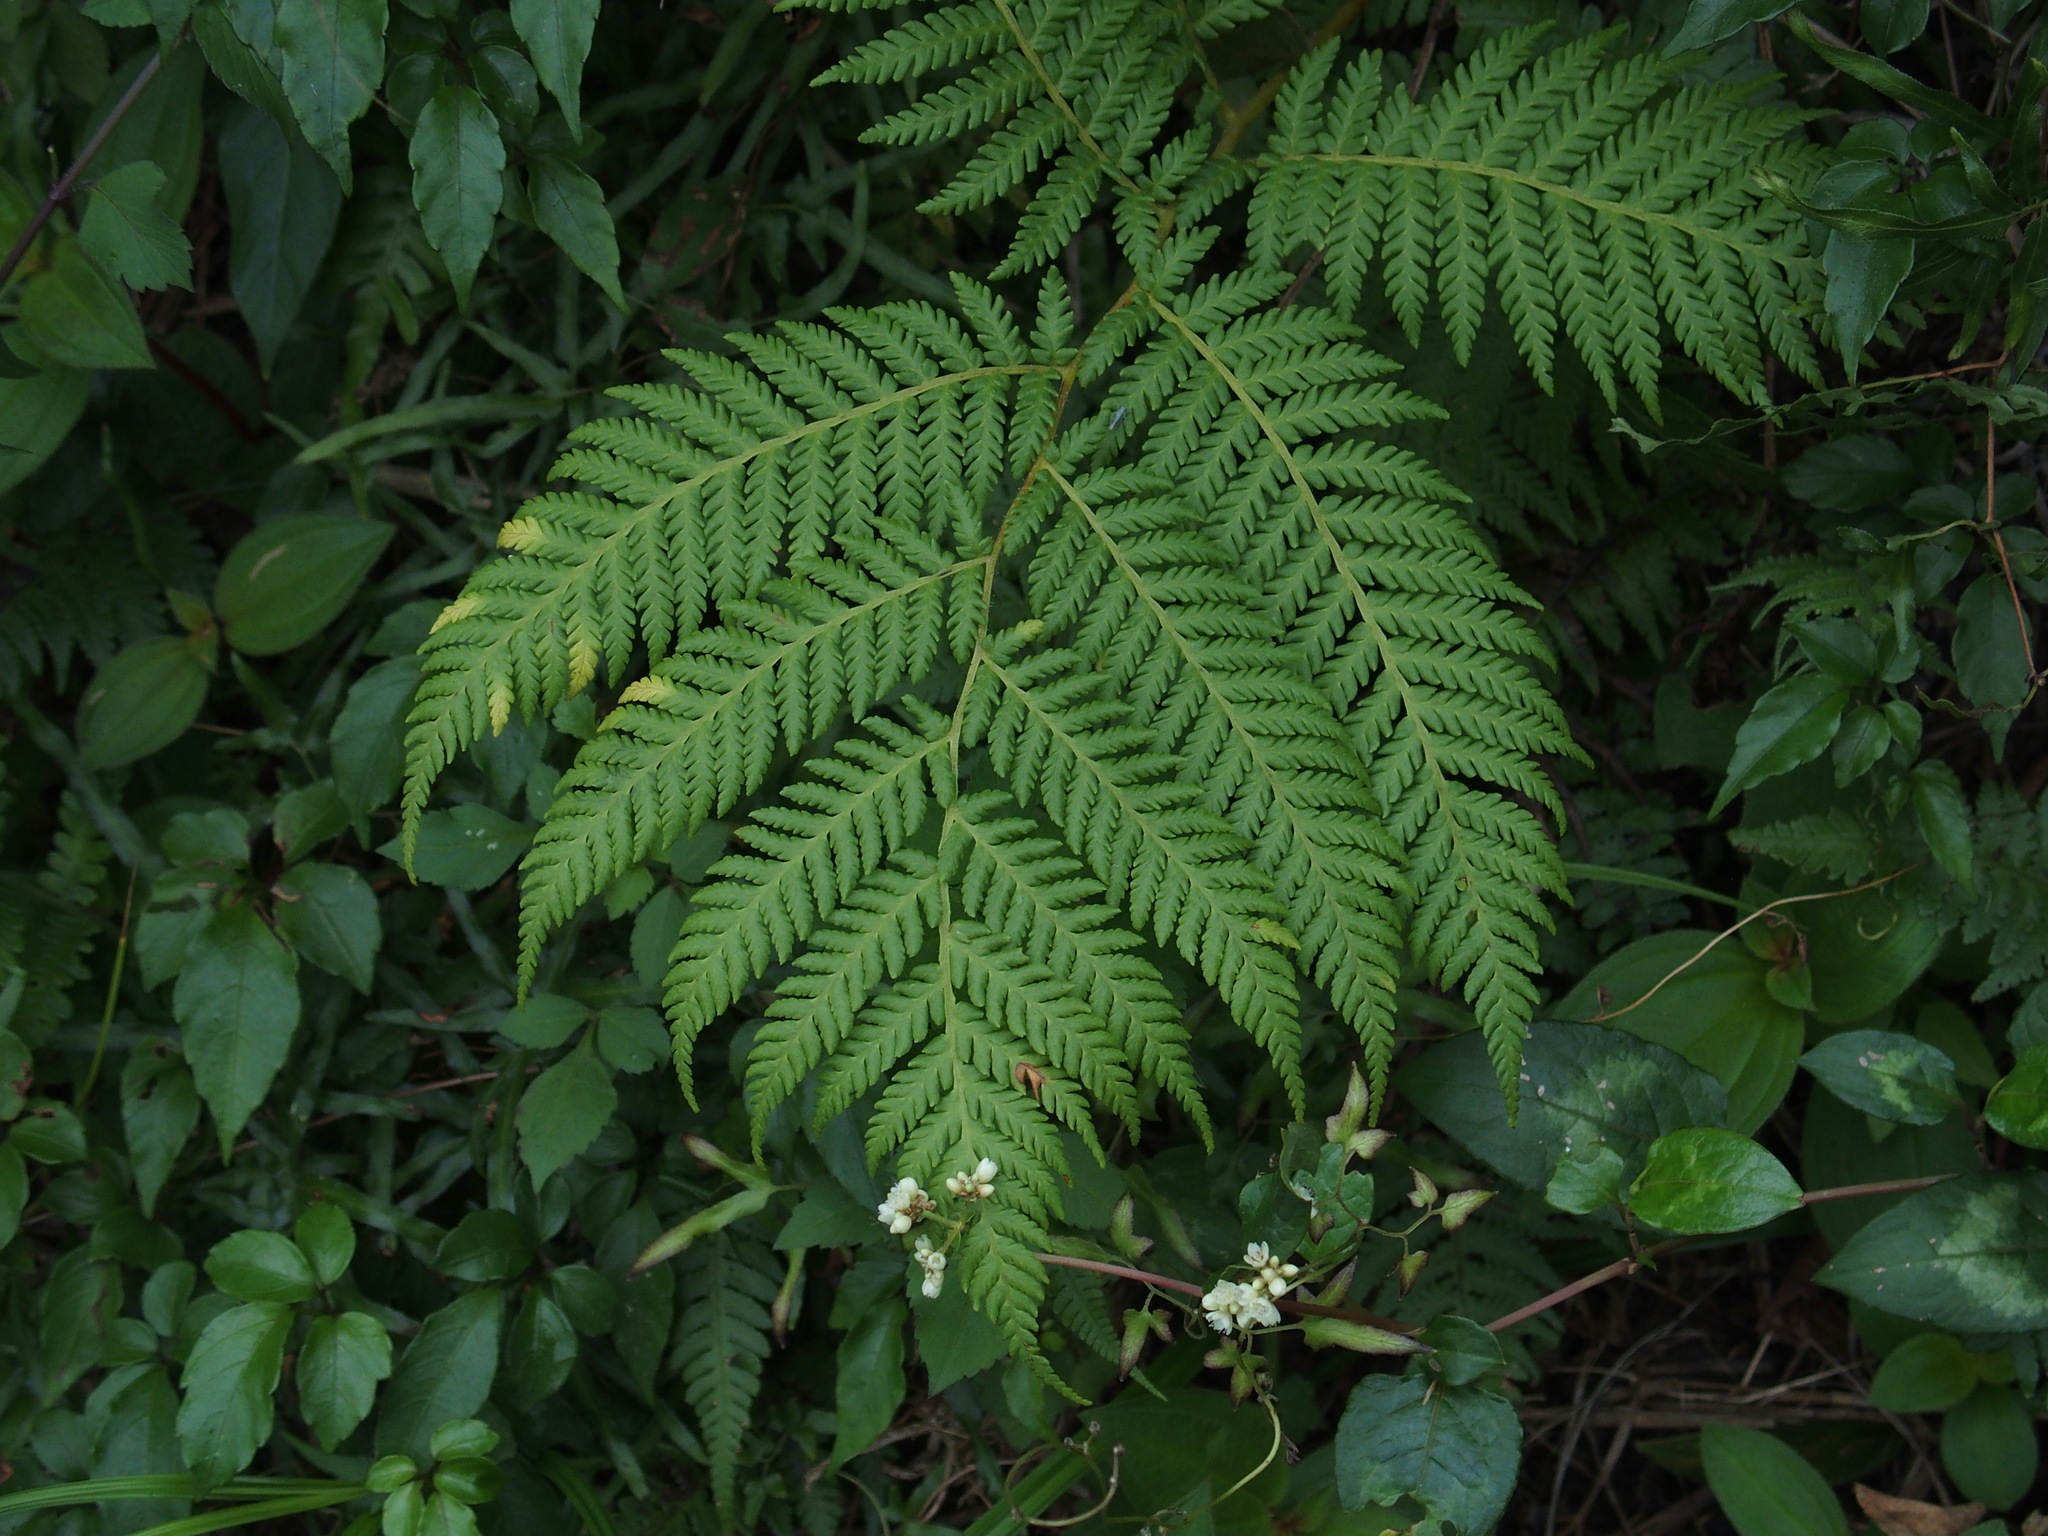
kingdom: Plantae
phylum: Tracheophyta
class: Polypodiopsida
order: Cyatheales
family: Cyatheaceae
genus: Alsophila
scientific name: Alsophila lepifera
